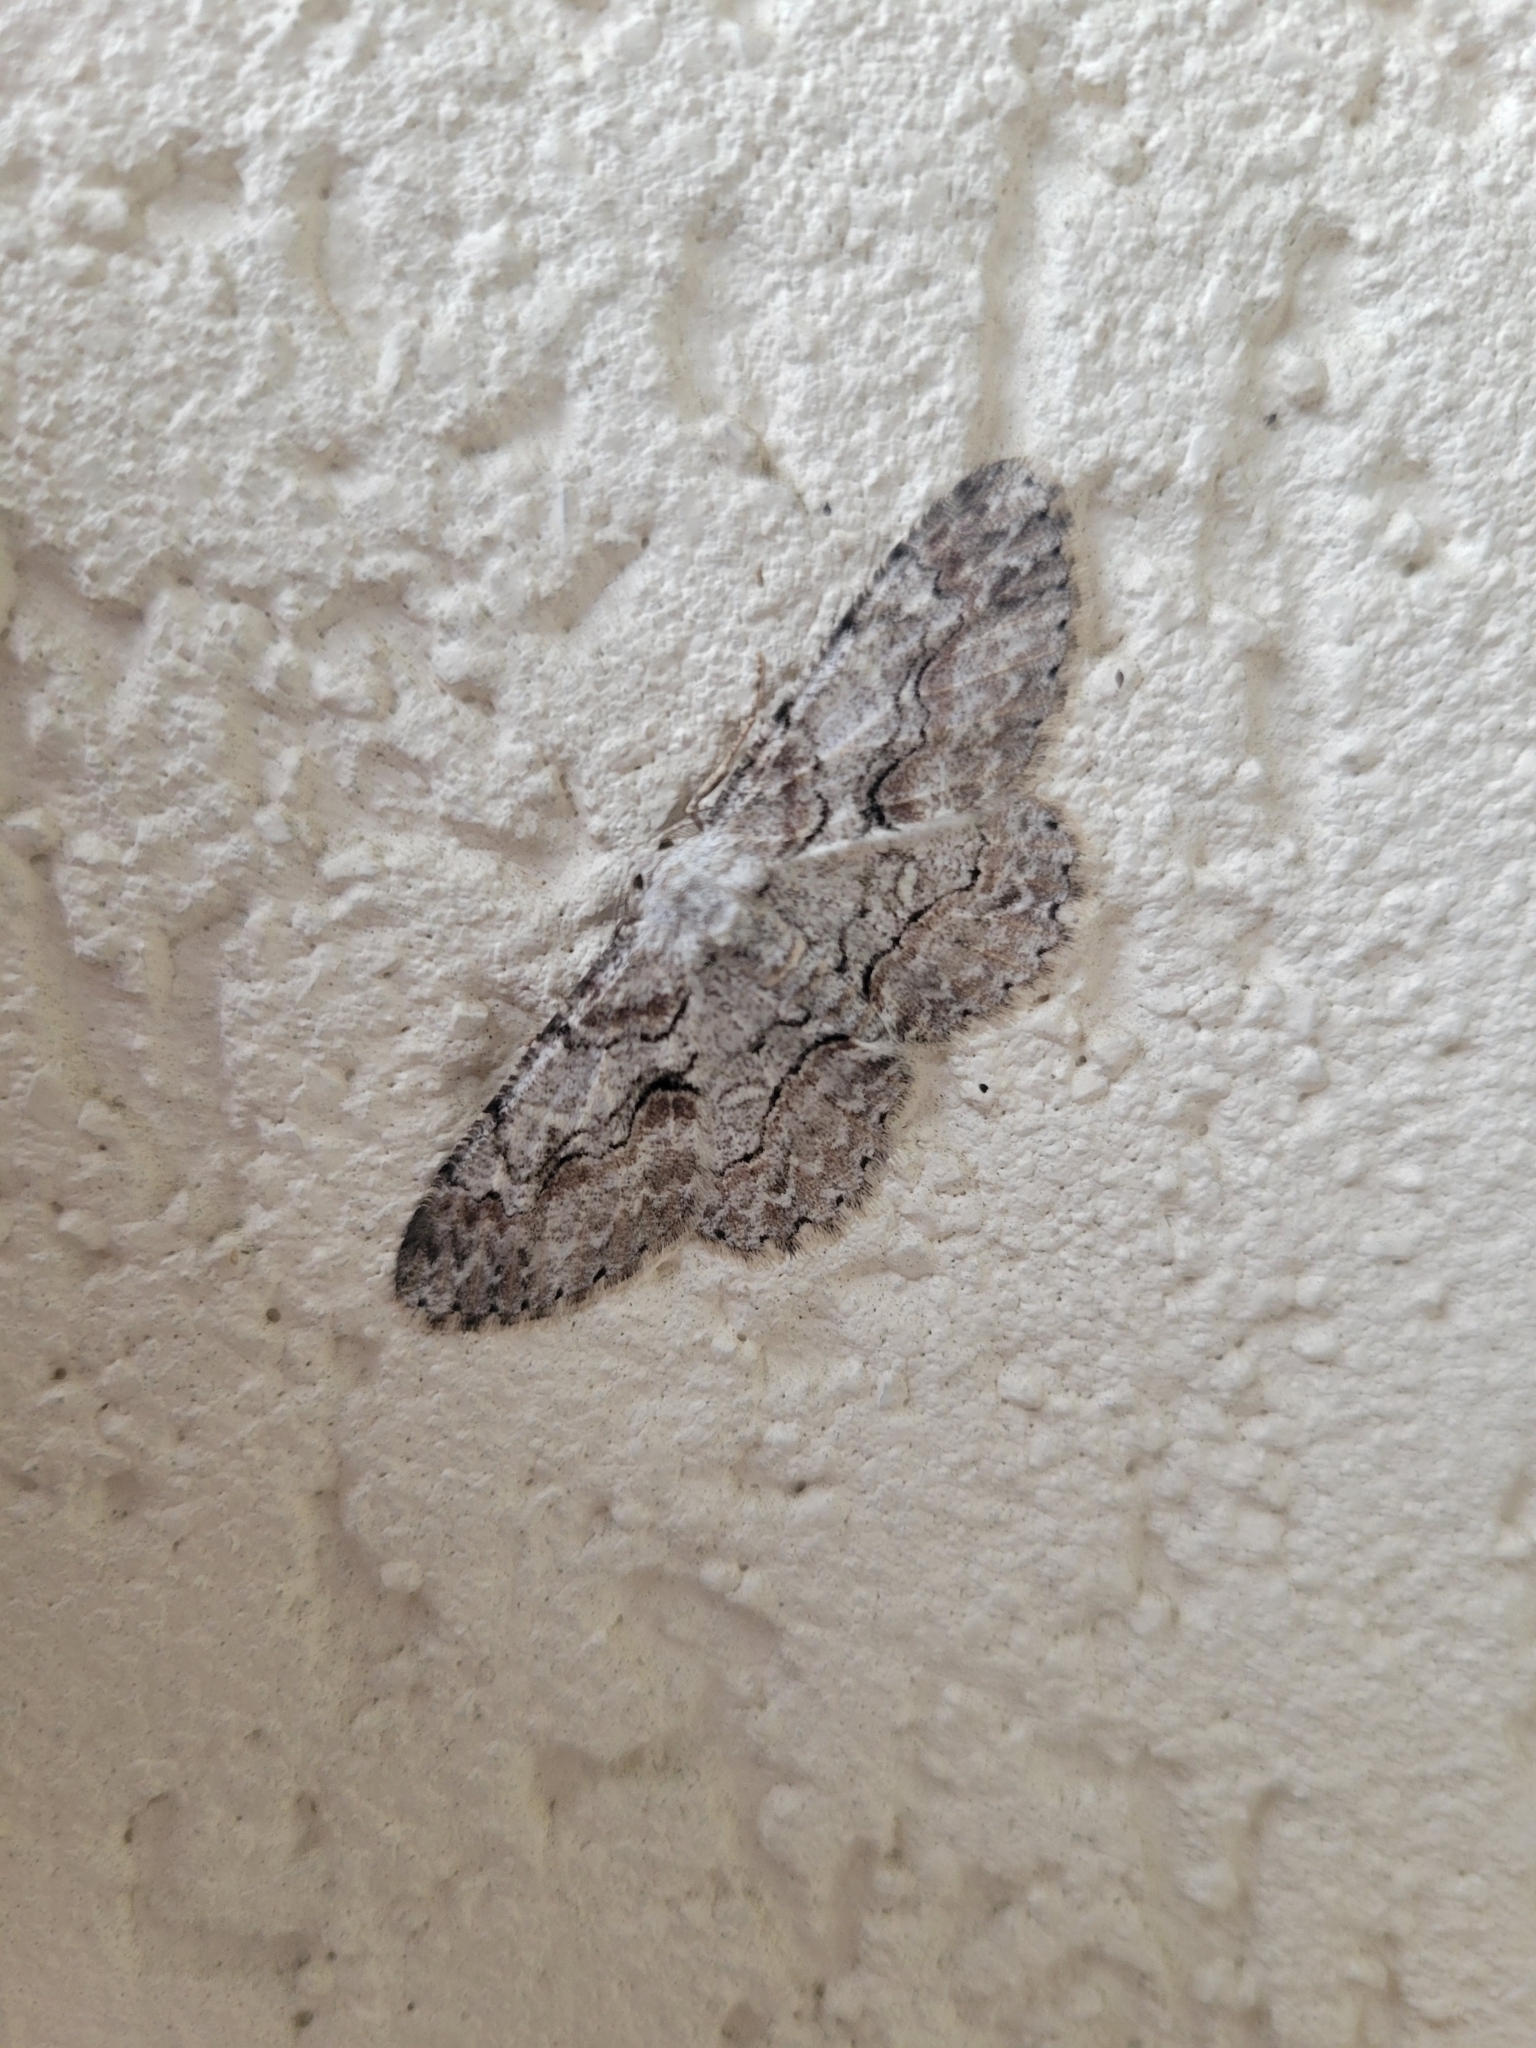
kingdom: Animalia
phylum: Arthropoda
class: Insecta
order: Lepidoptera
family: Geometridae
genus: Iridopsis
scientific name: Iridopsis defectaria
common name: Brown-shaded gray
